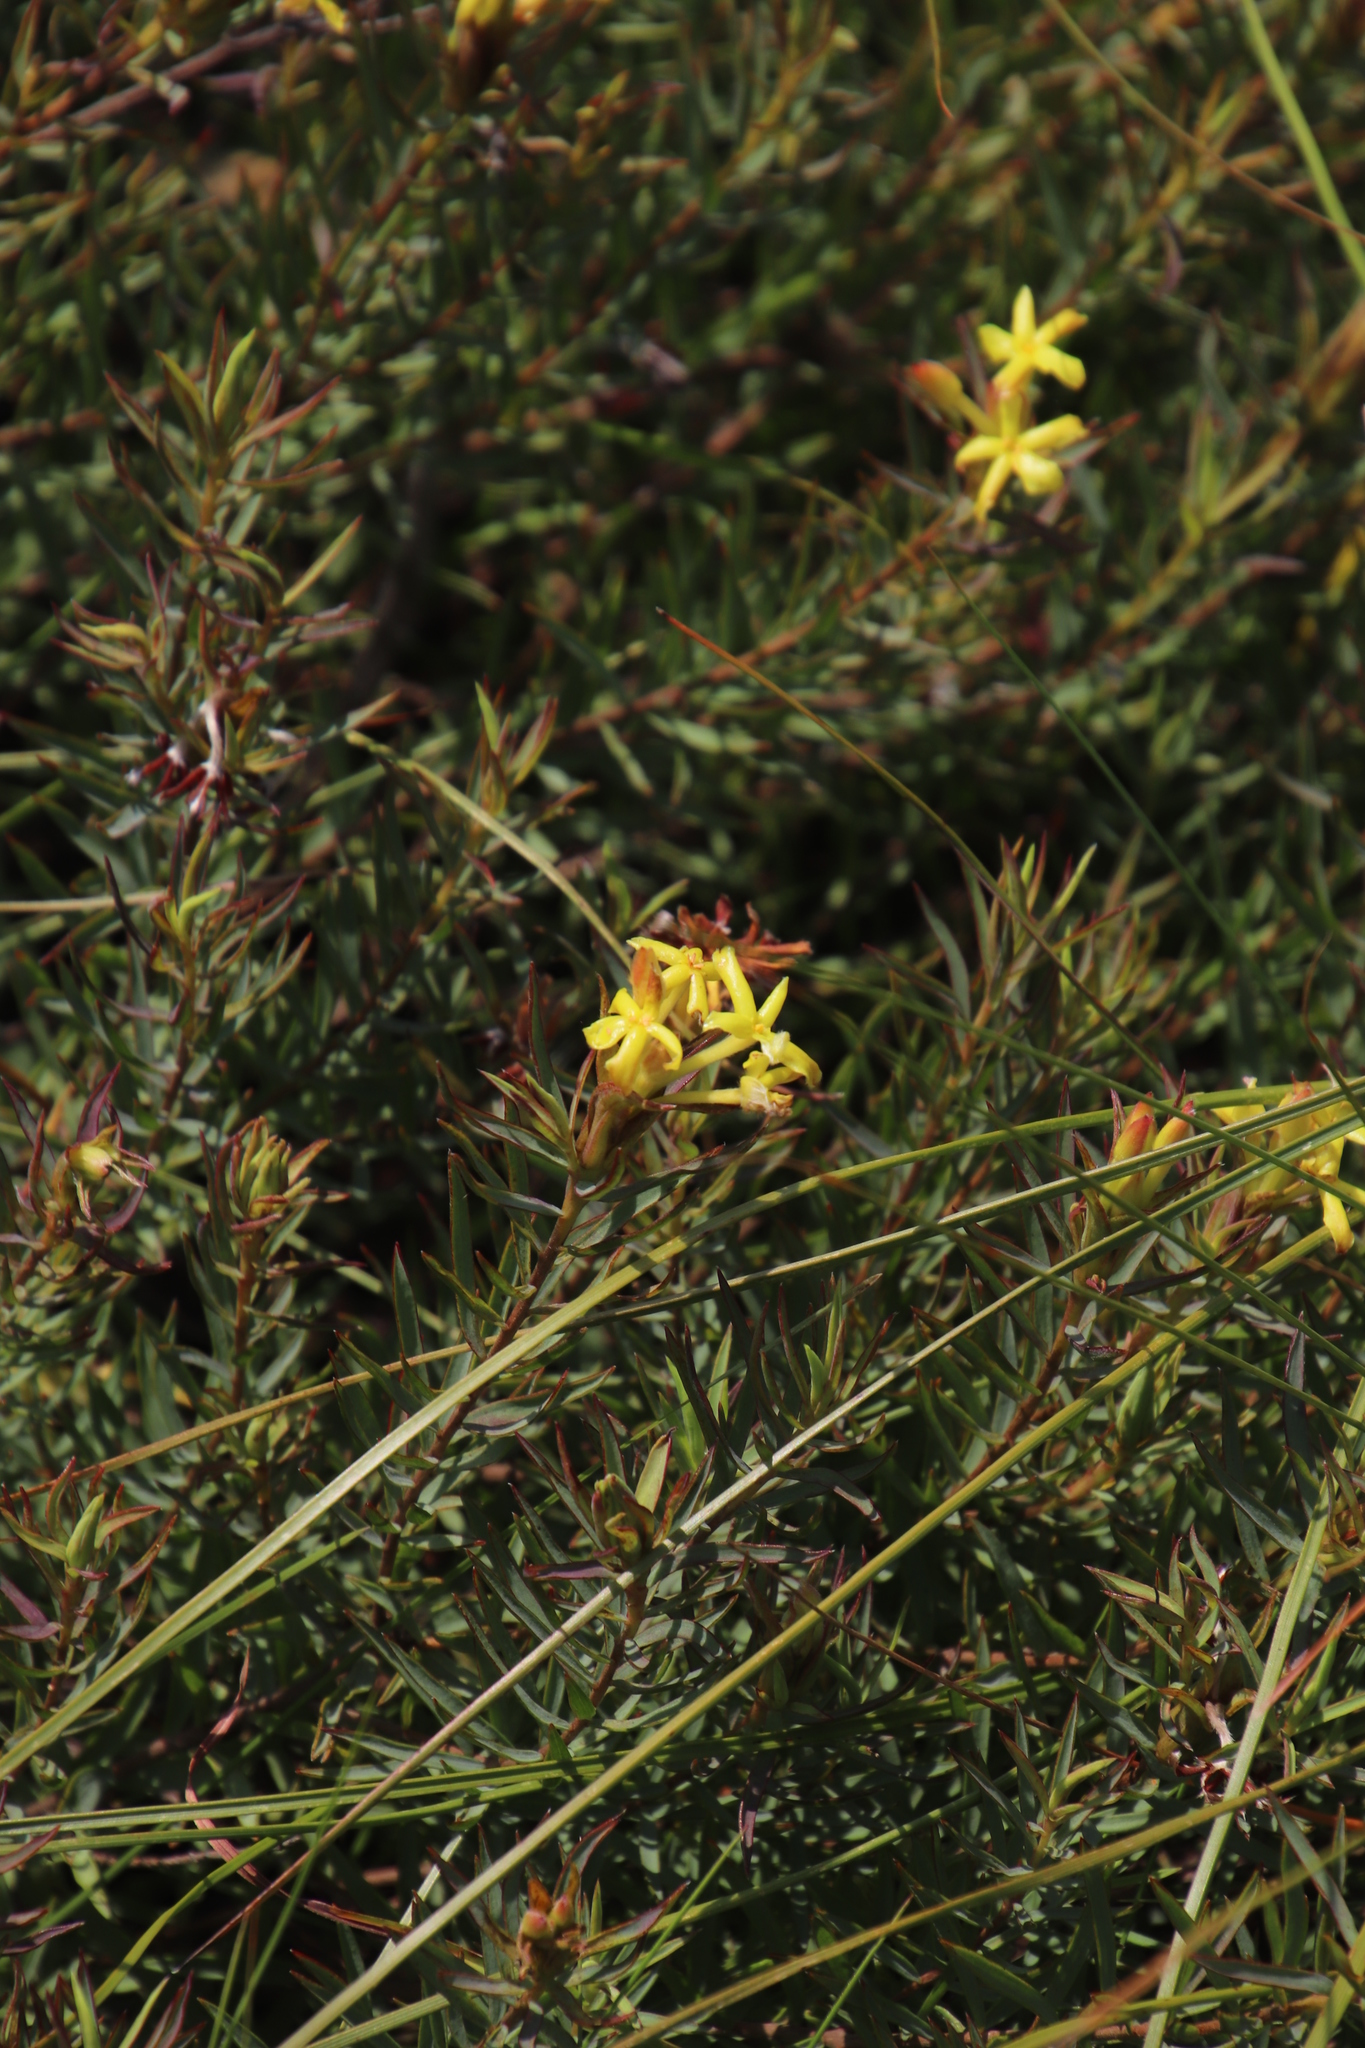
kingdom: Plantae
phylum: Tracheophyta
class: Magnoliopsida
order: Malvales
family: Thymelaeaceae
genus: Gnidia
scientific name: Gnidia capitata
